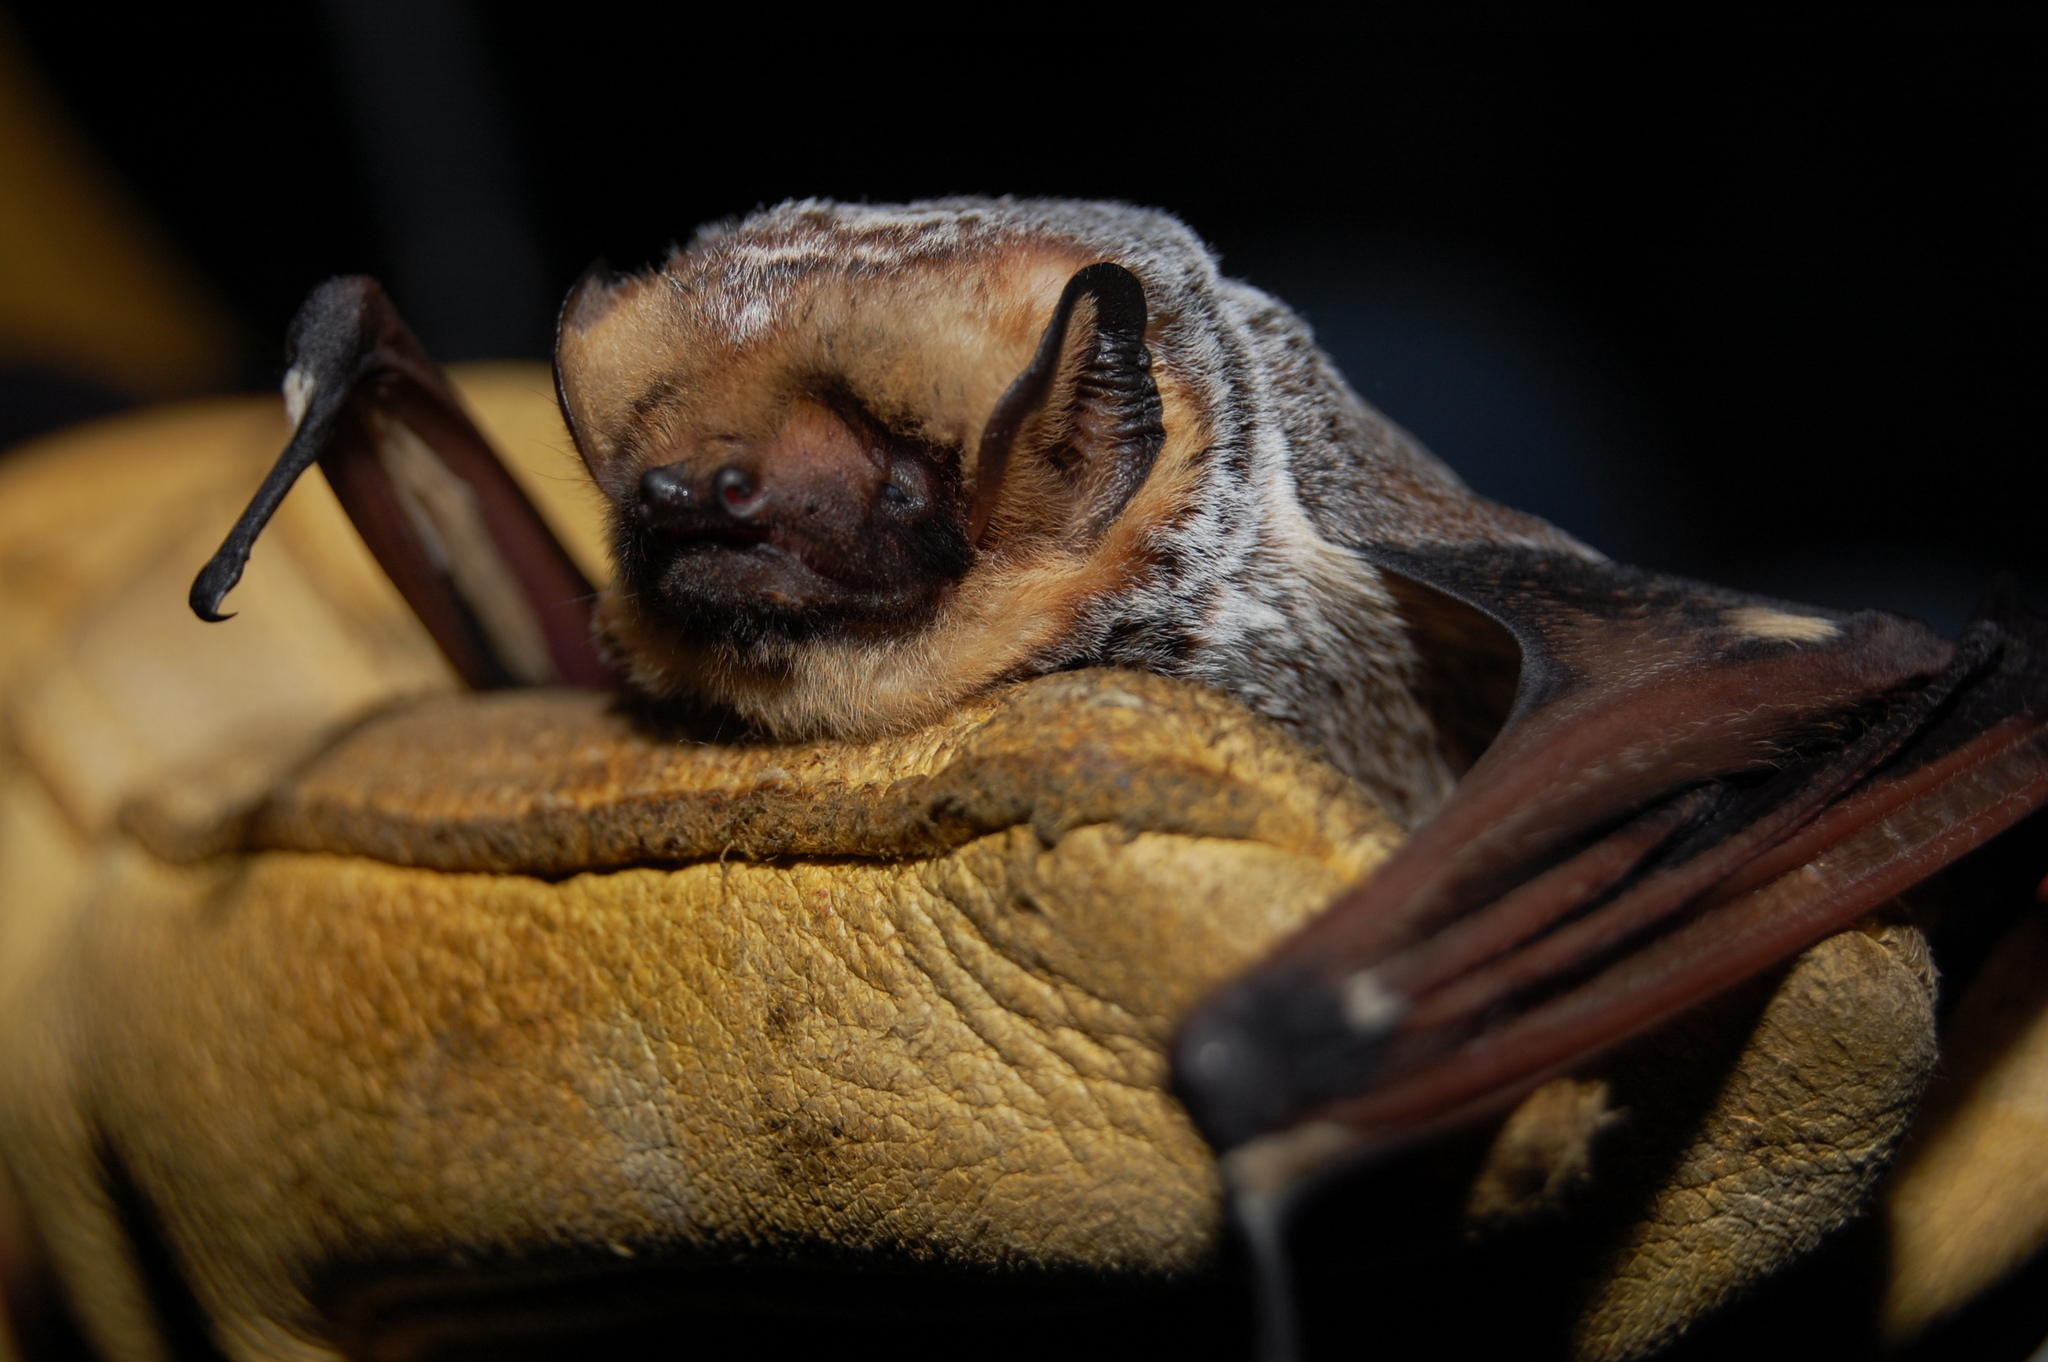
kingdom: Animalia
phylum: Chordata
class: Mammalia
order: Chiroptera
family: Vespertilionidae
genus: Aeorestes
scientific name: Aeorestes cinereus
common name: North american hoary bat
